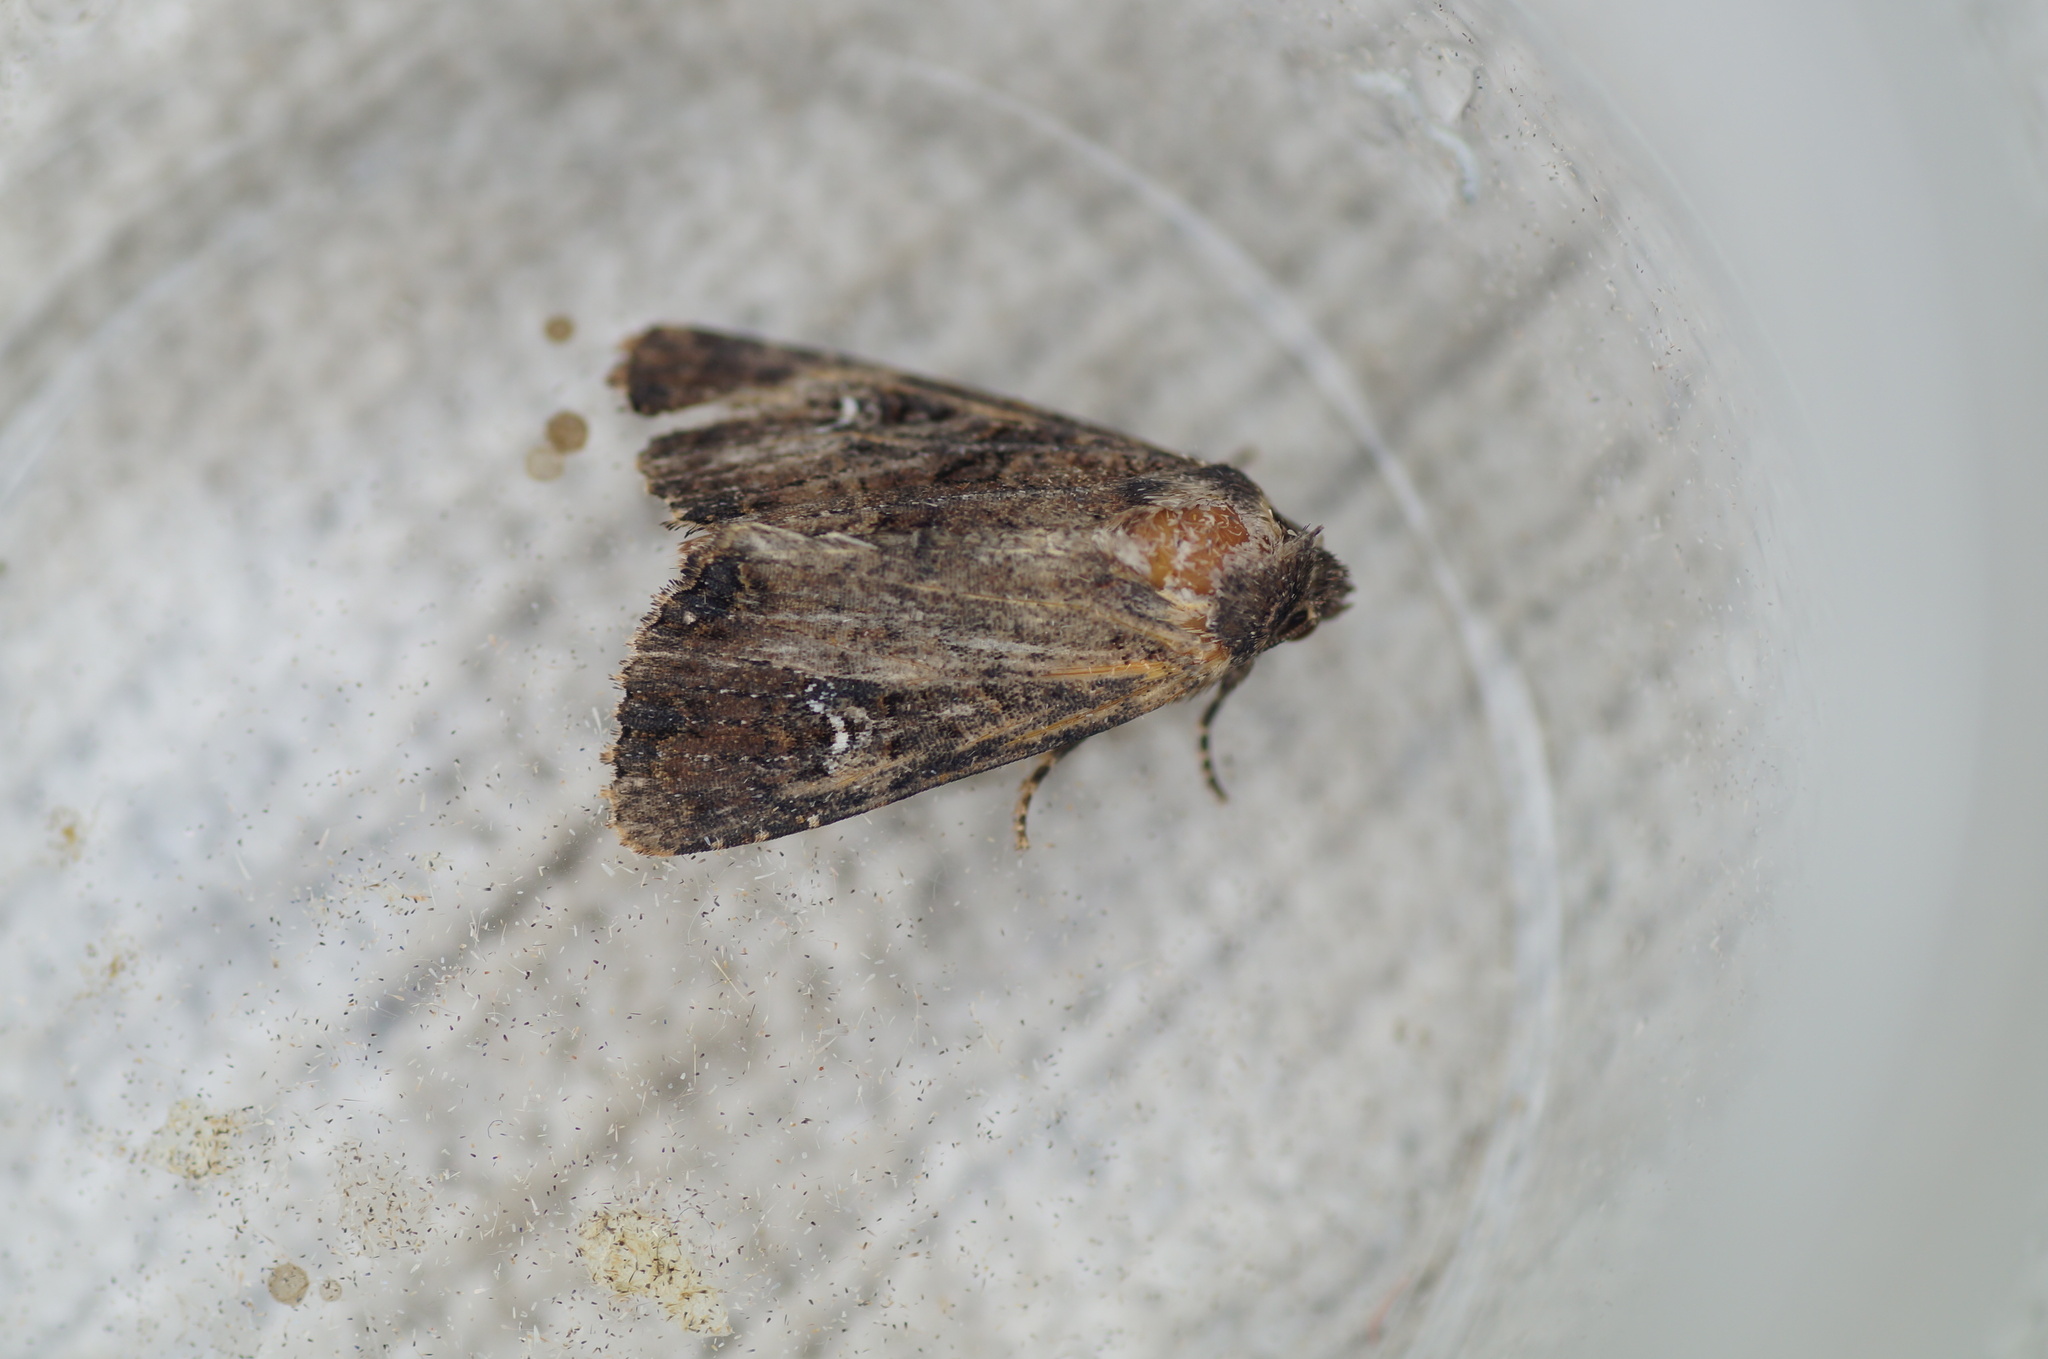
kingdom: Animalia
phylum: Arthropoda
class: Insecta
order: Lepidoptera
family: Noctuidae
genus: Mesapamea
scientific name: Mesapamea
